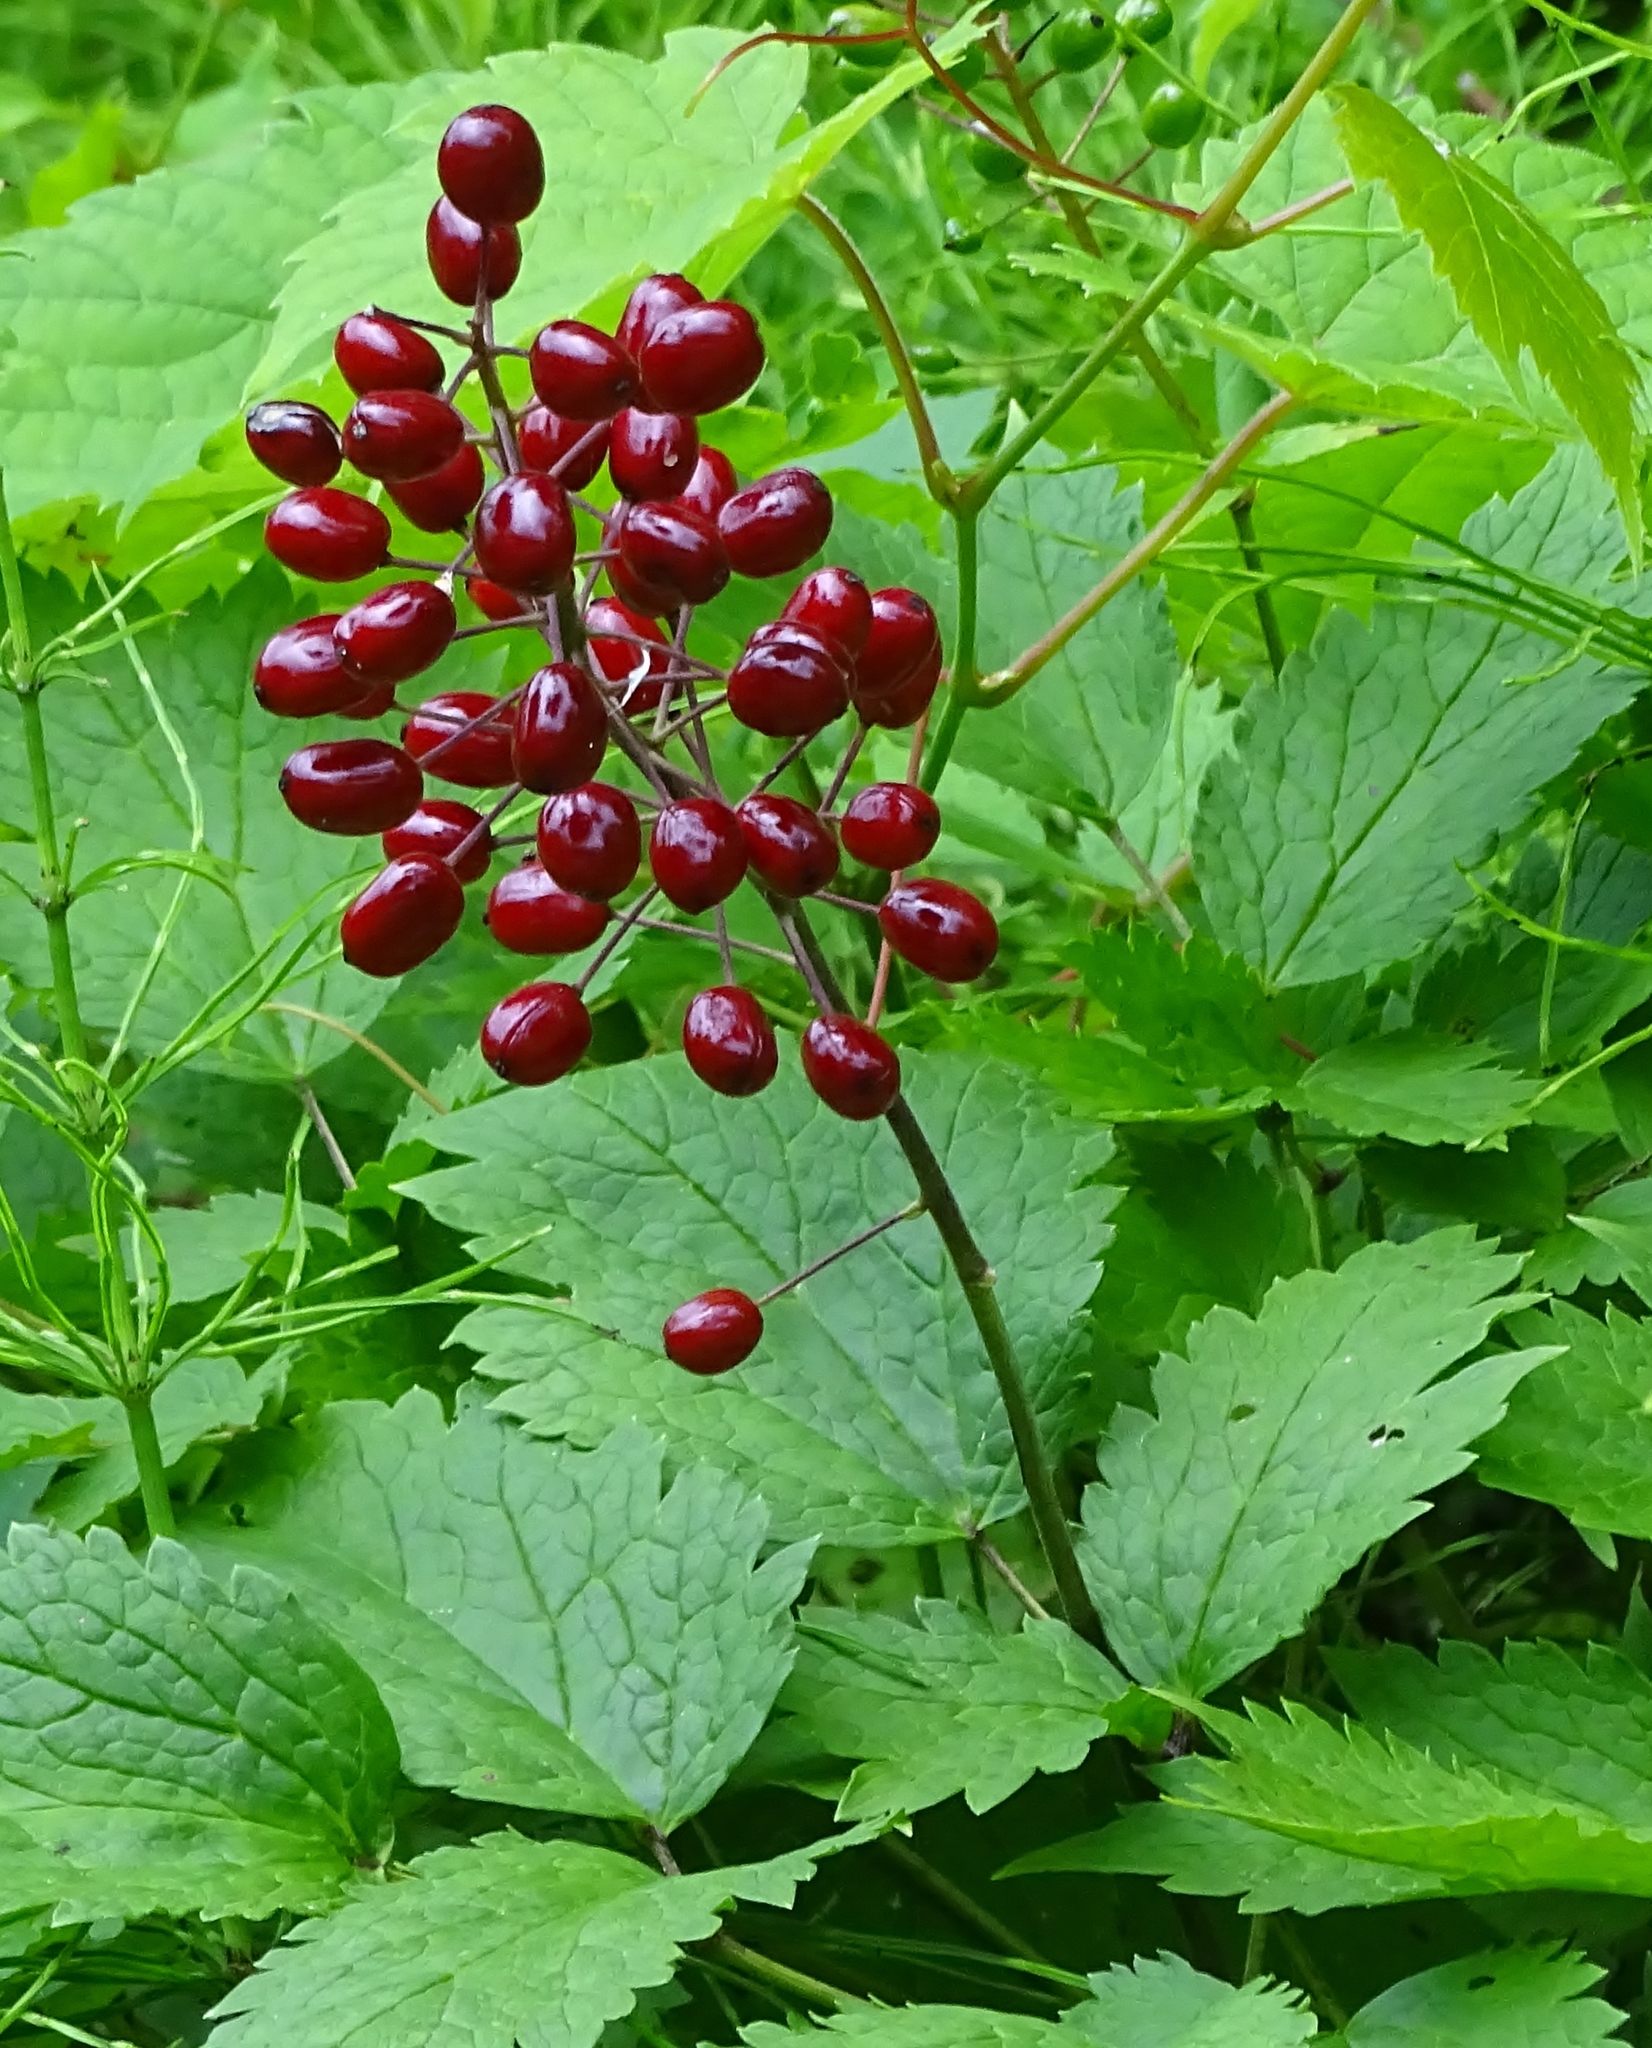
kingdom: Plantae
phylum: Tracheophyta
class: Magnoliopsida
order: Ranunculales
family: Ranunculaceae
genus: Actaea
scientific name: Actaea rubra
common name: Red baneberry
